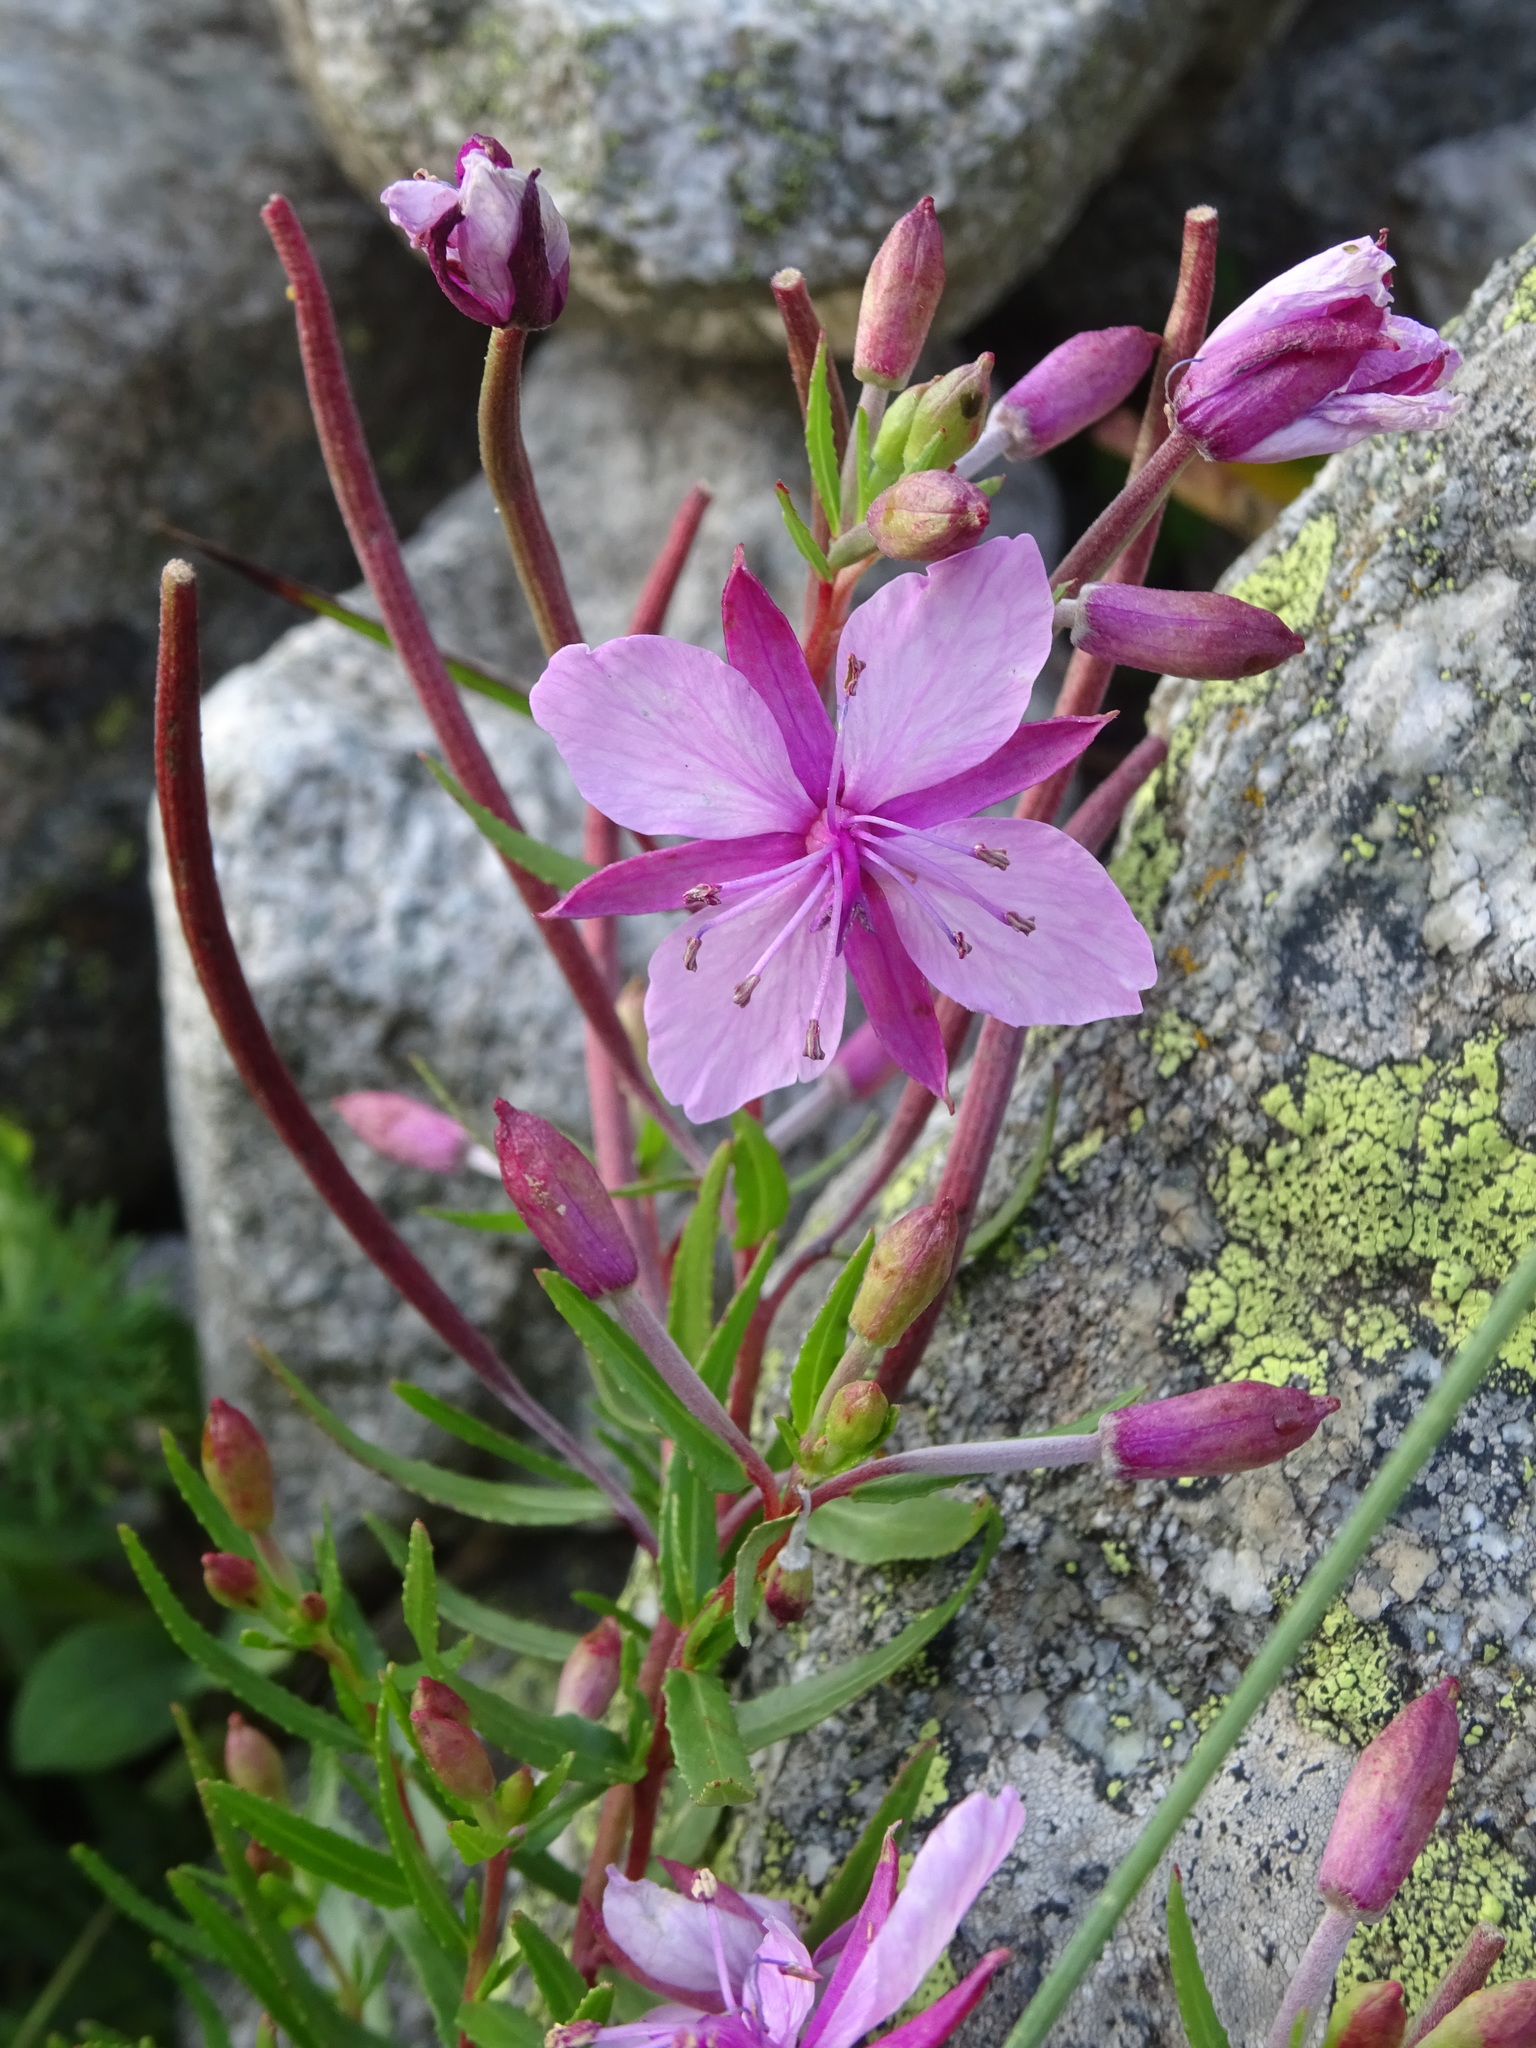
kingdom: Plantae
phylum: Tracheophyta
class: Magnoliopsida
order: Myrtales
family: Onagraceae
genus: Chamaenerion
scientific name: Chamaenerion fleischeri
